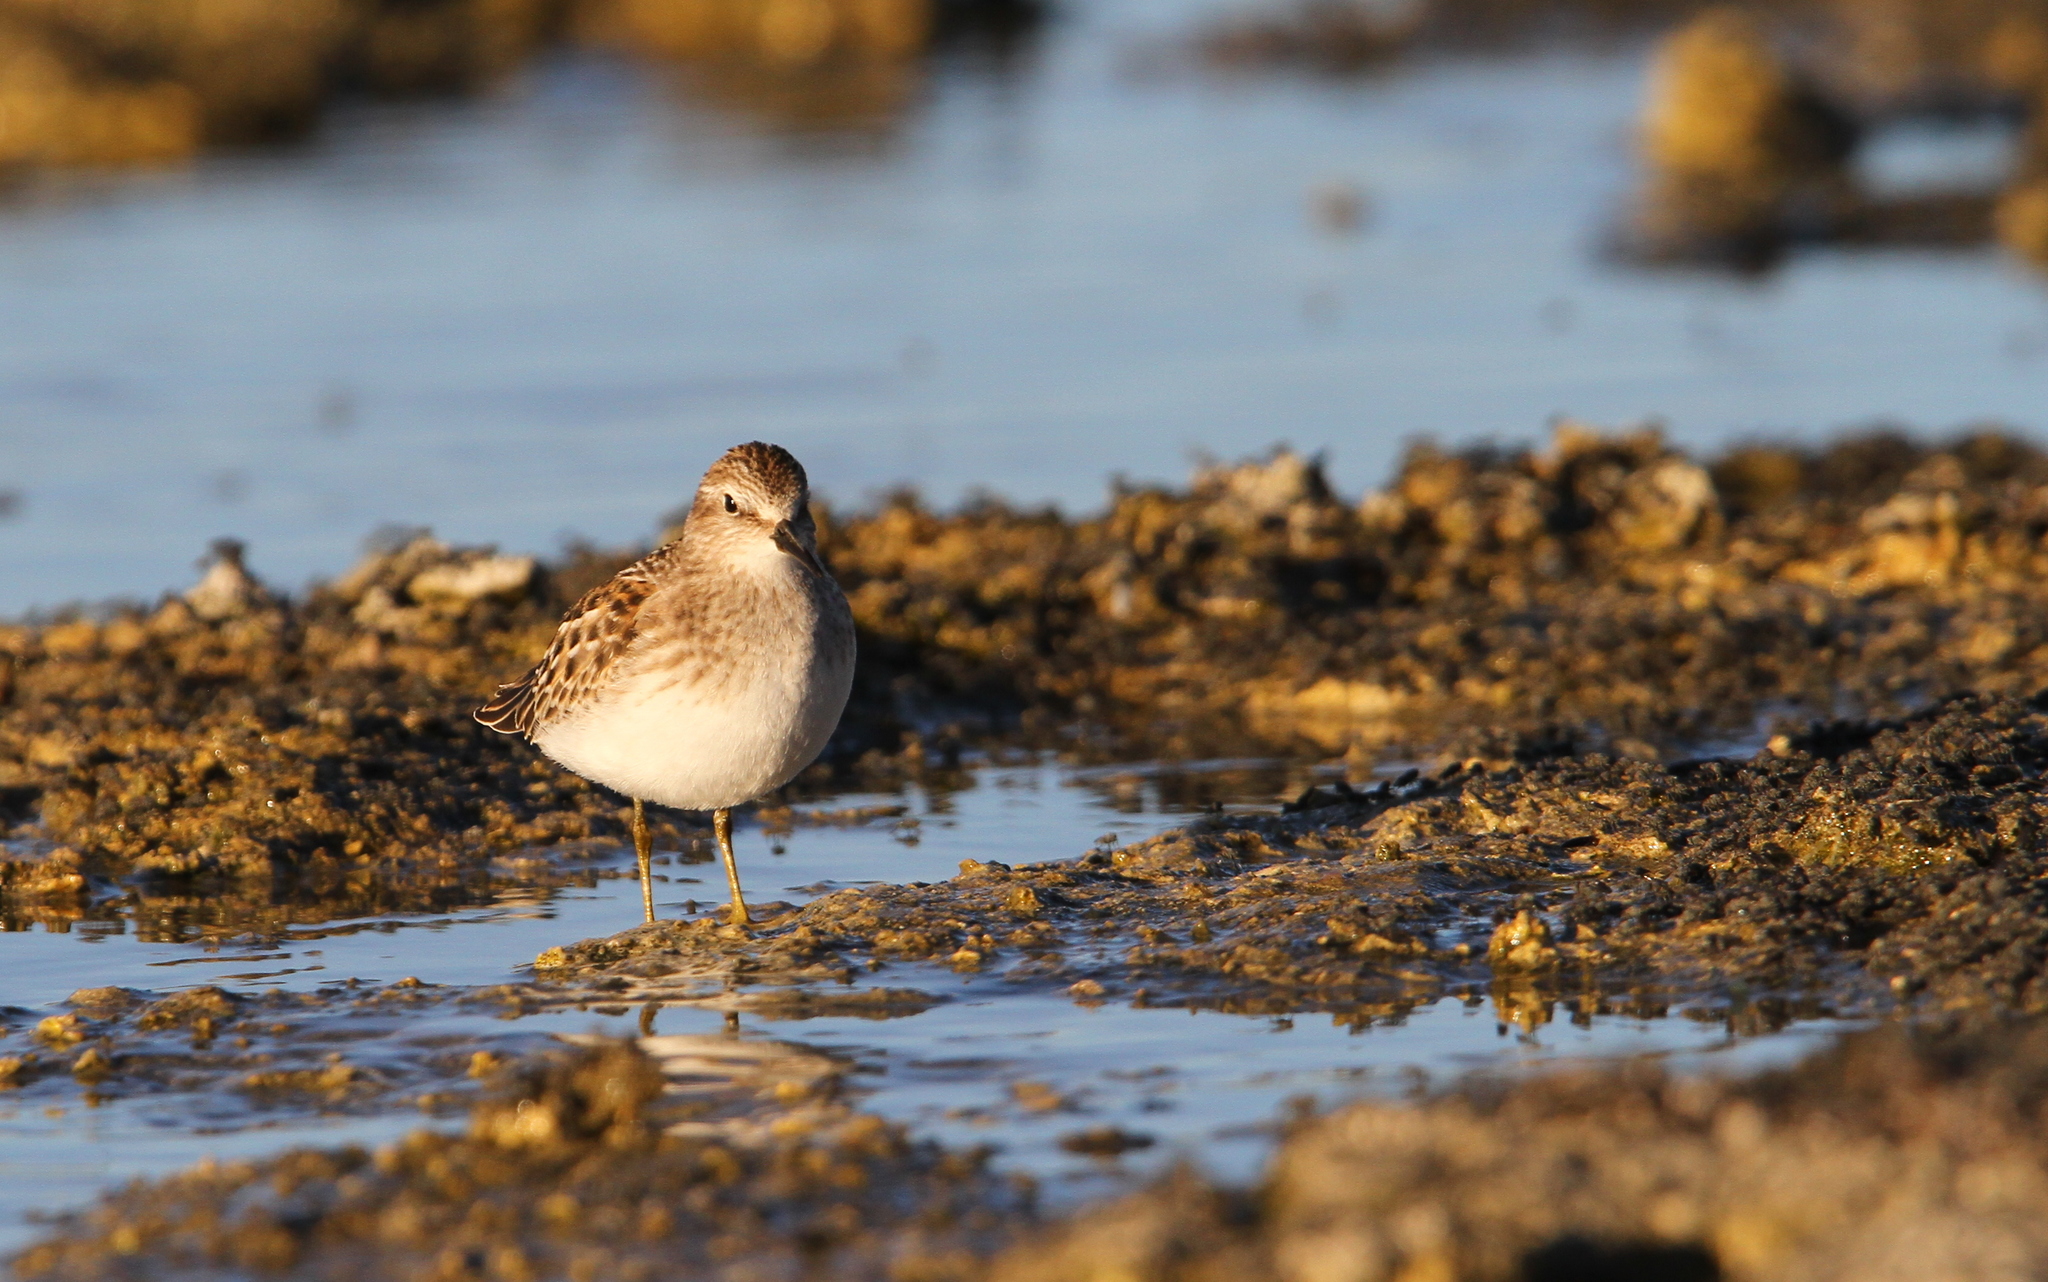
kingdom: Animalia
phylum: Chordata
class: Aves
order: Charadriiformes
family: Scolopacidae
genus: Calidris
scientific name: Calidris minutilla
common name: Least sandpiper
